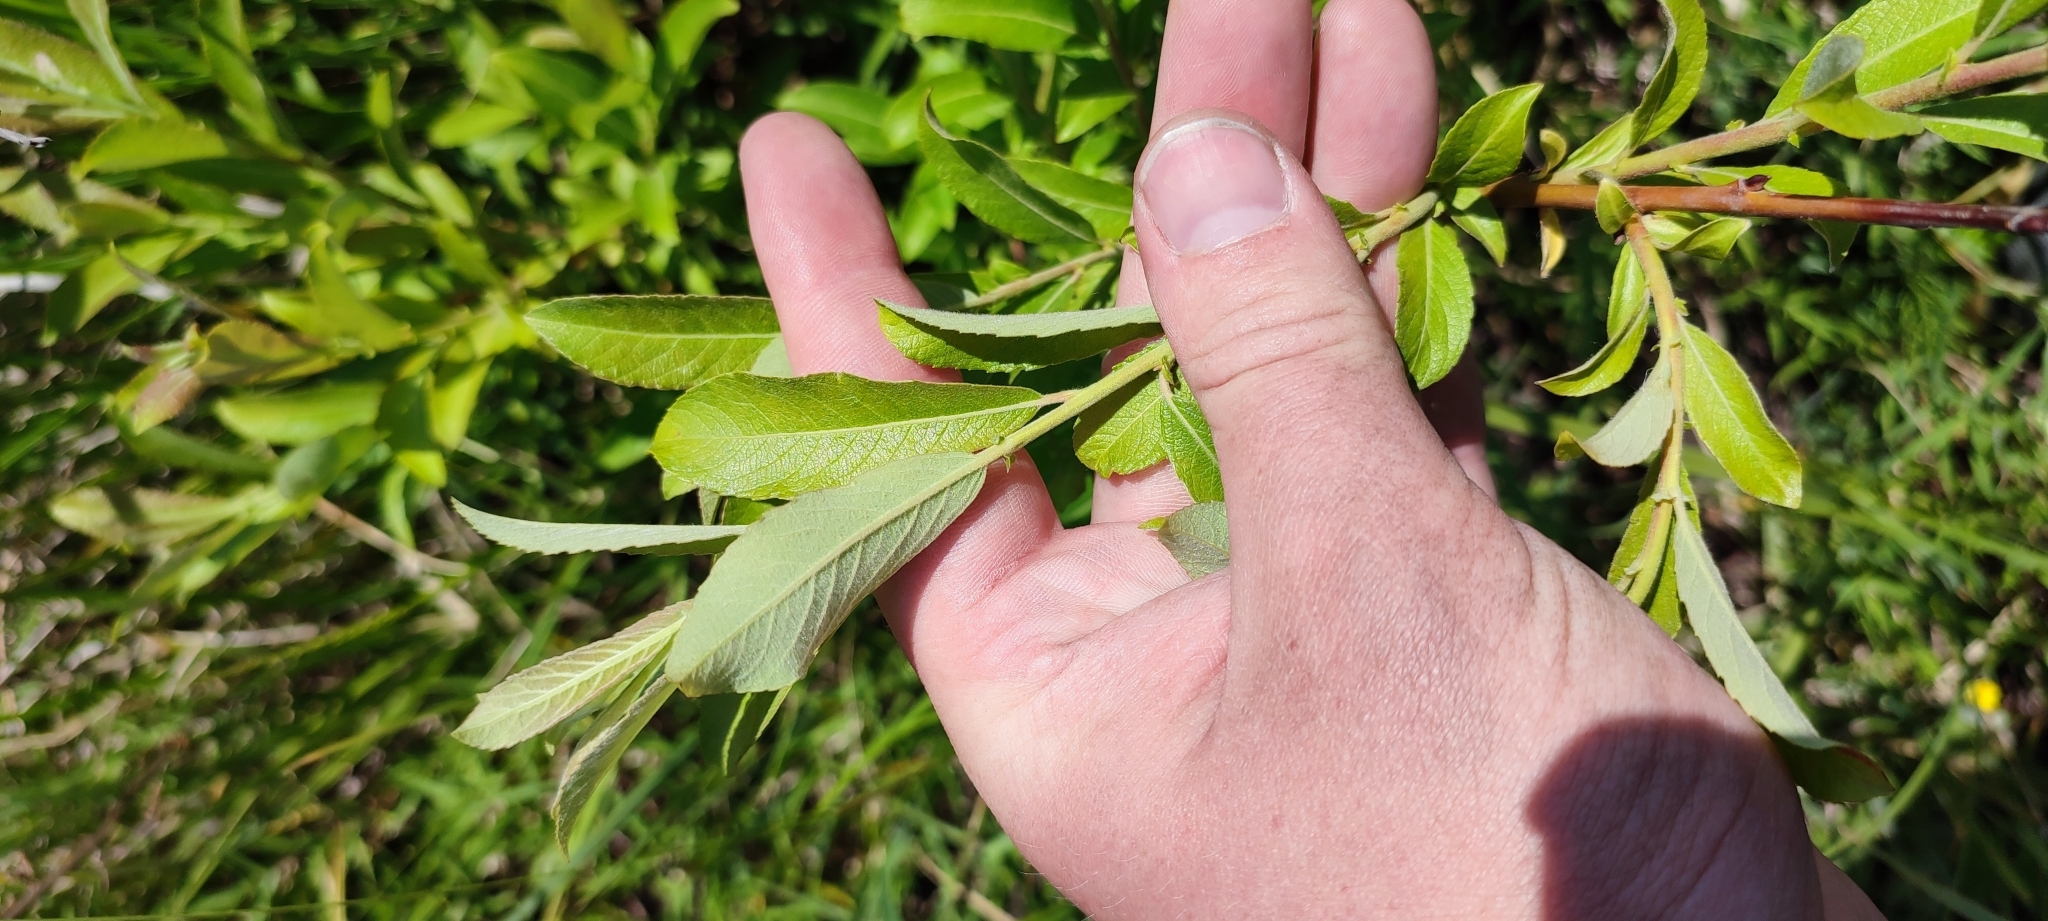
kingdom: Plantae
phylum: Tracheophyta
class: Magnoliopsida
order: Malpighiales
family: Salicaceae
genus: Salix
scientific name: Salix cinerea
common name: Common sallow
